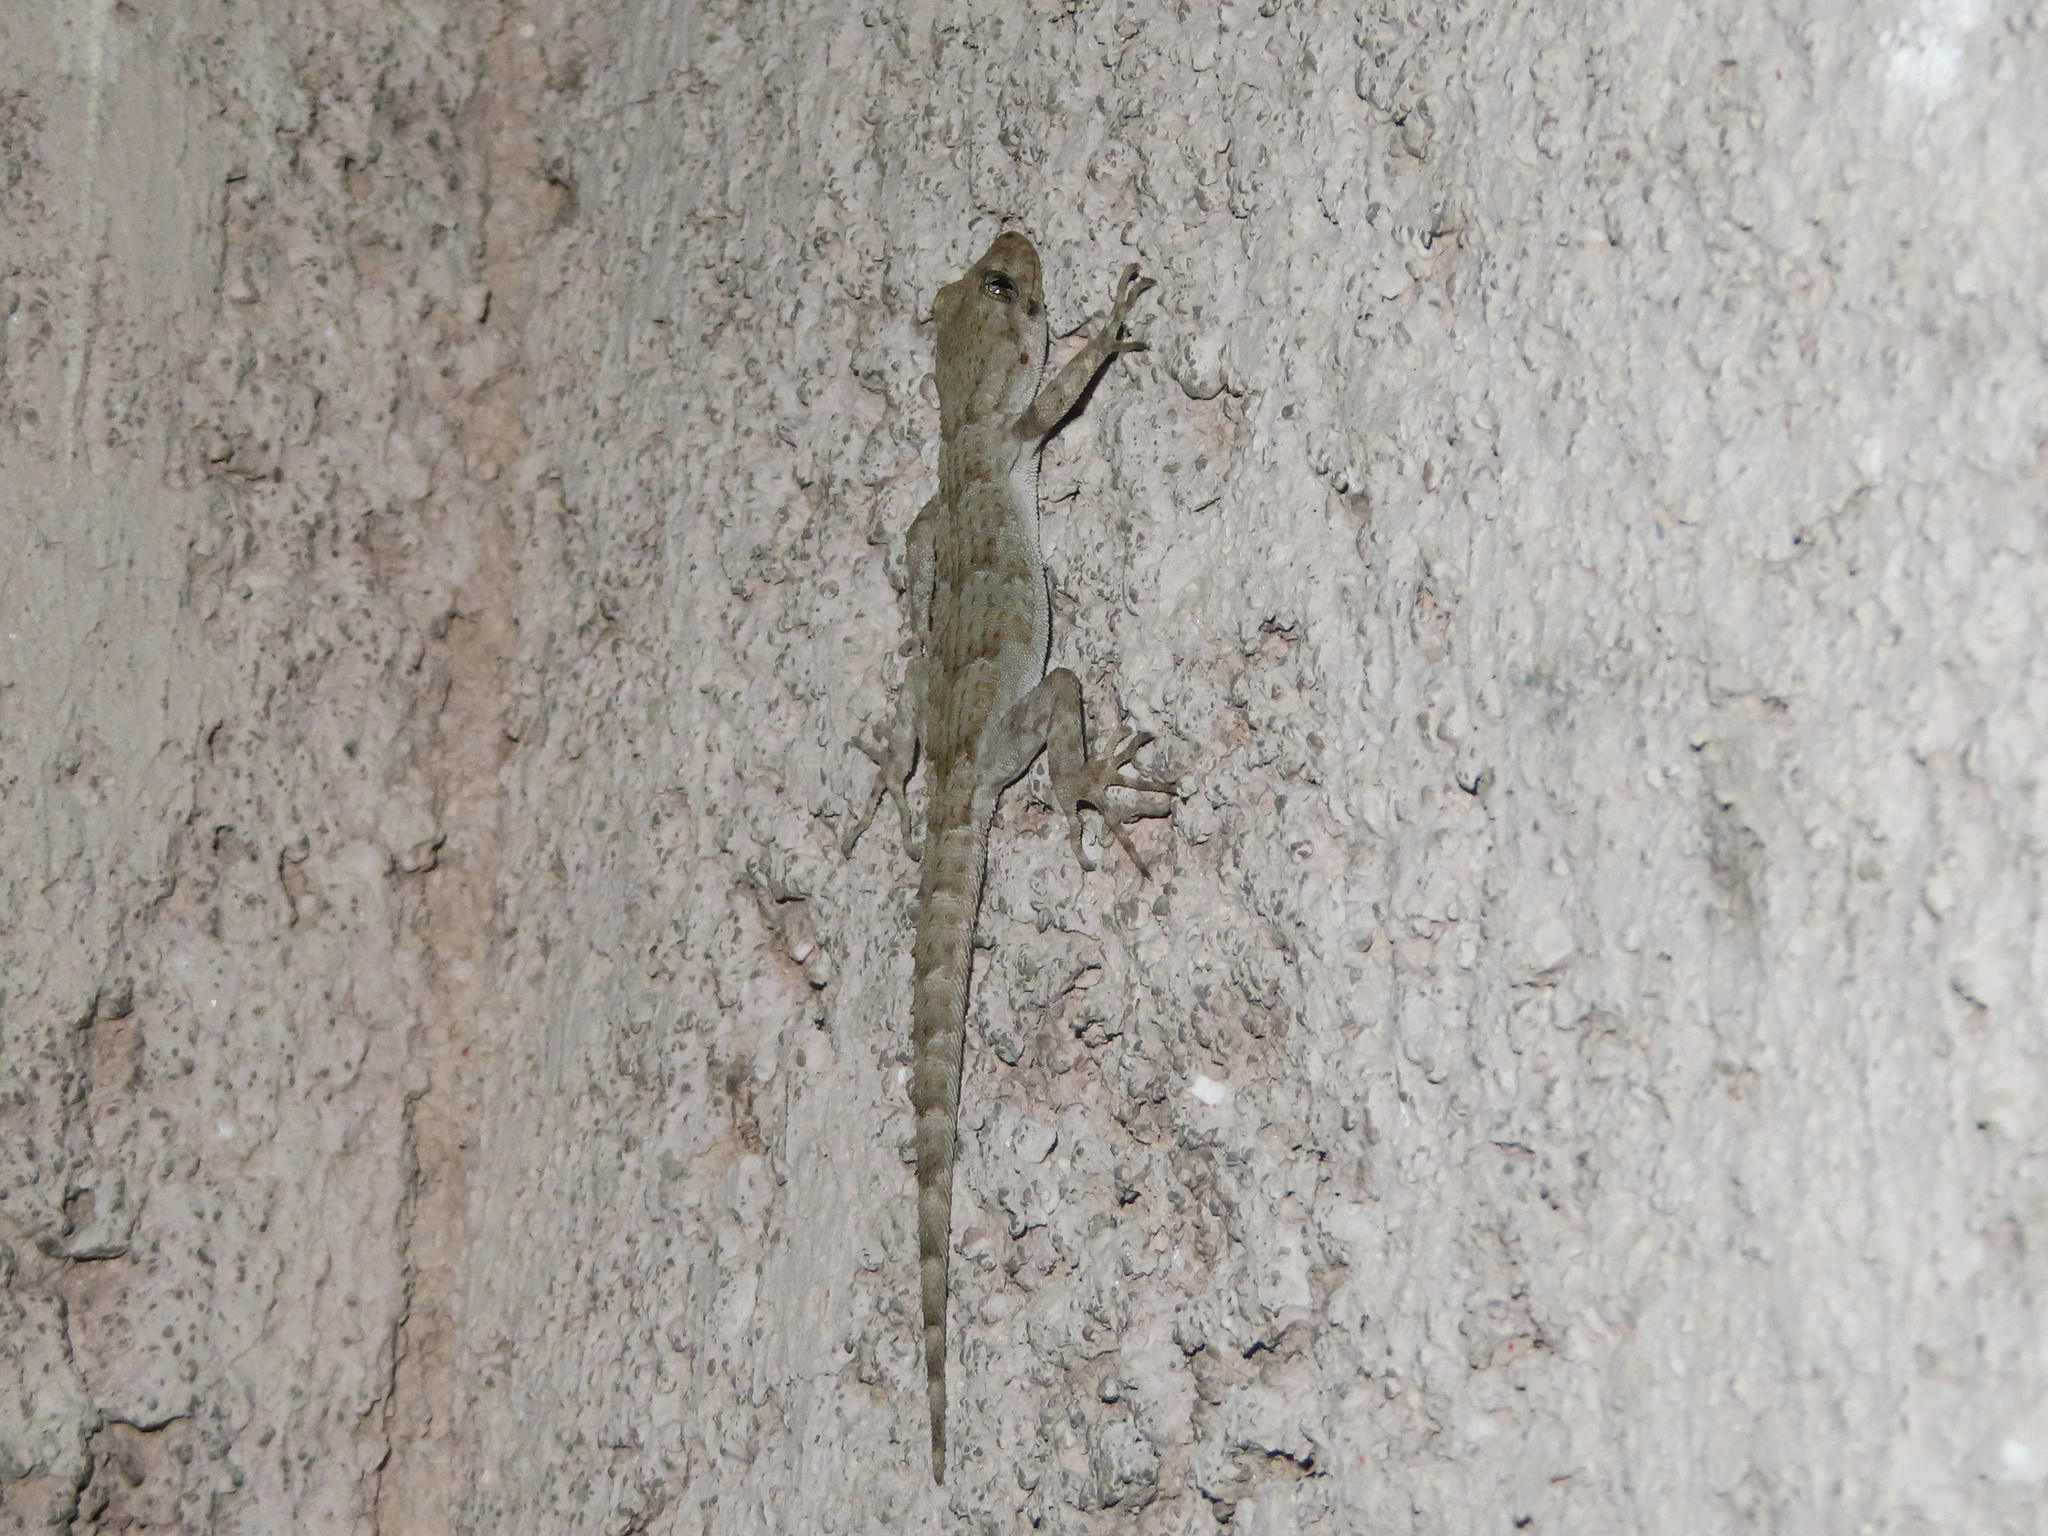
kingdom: Animalia
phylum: Chordata
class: Squamata
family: Gekkonidae
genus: Mediodactylus
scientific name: Mediodactylus kotschyi
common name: Kotschy's gecko
